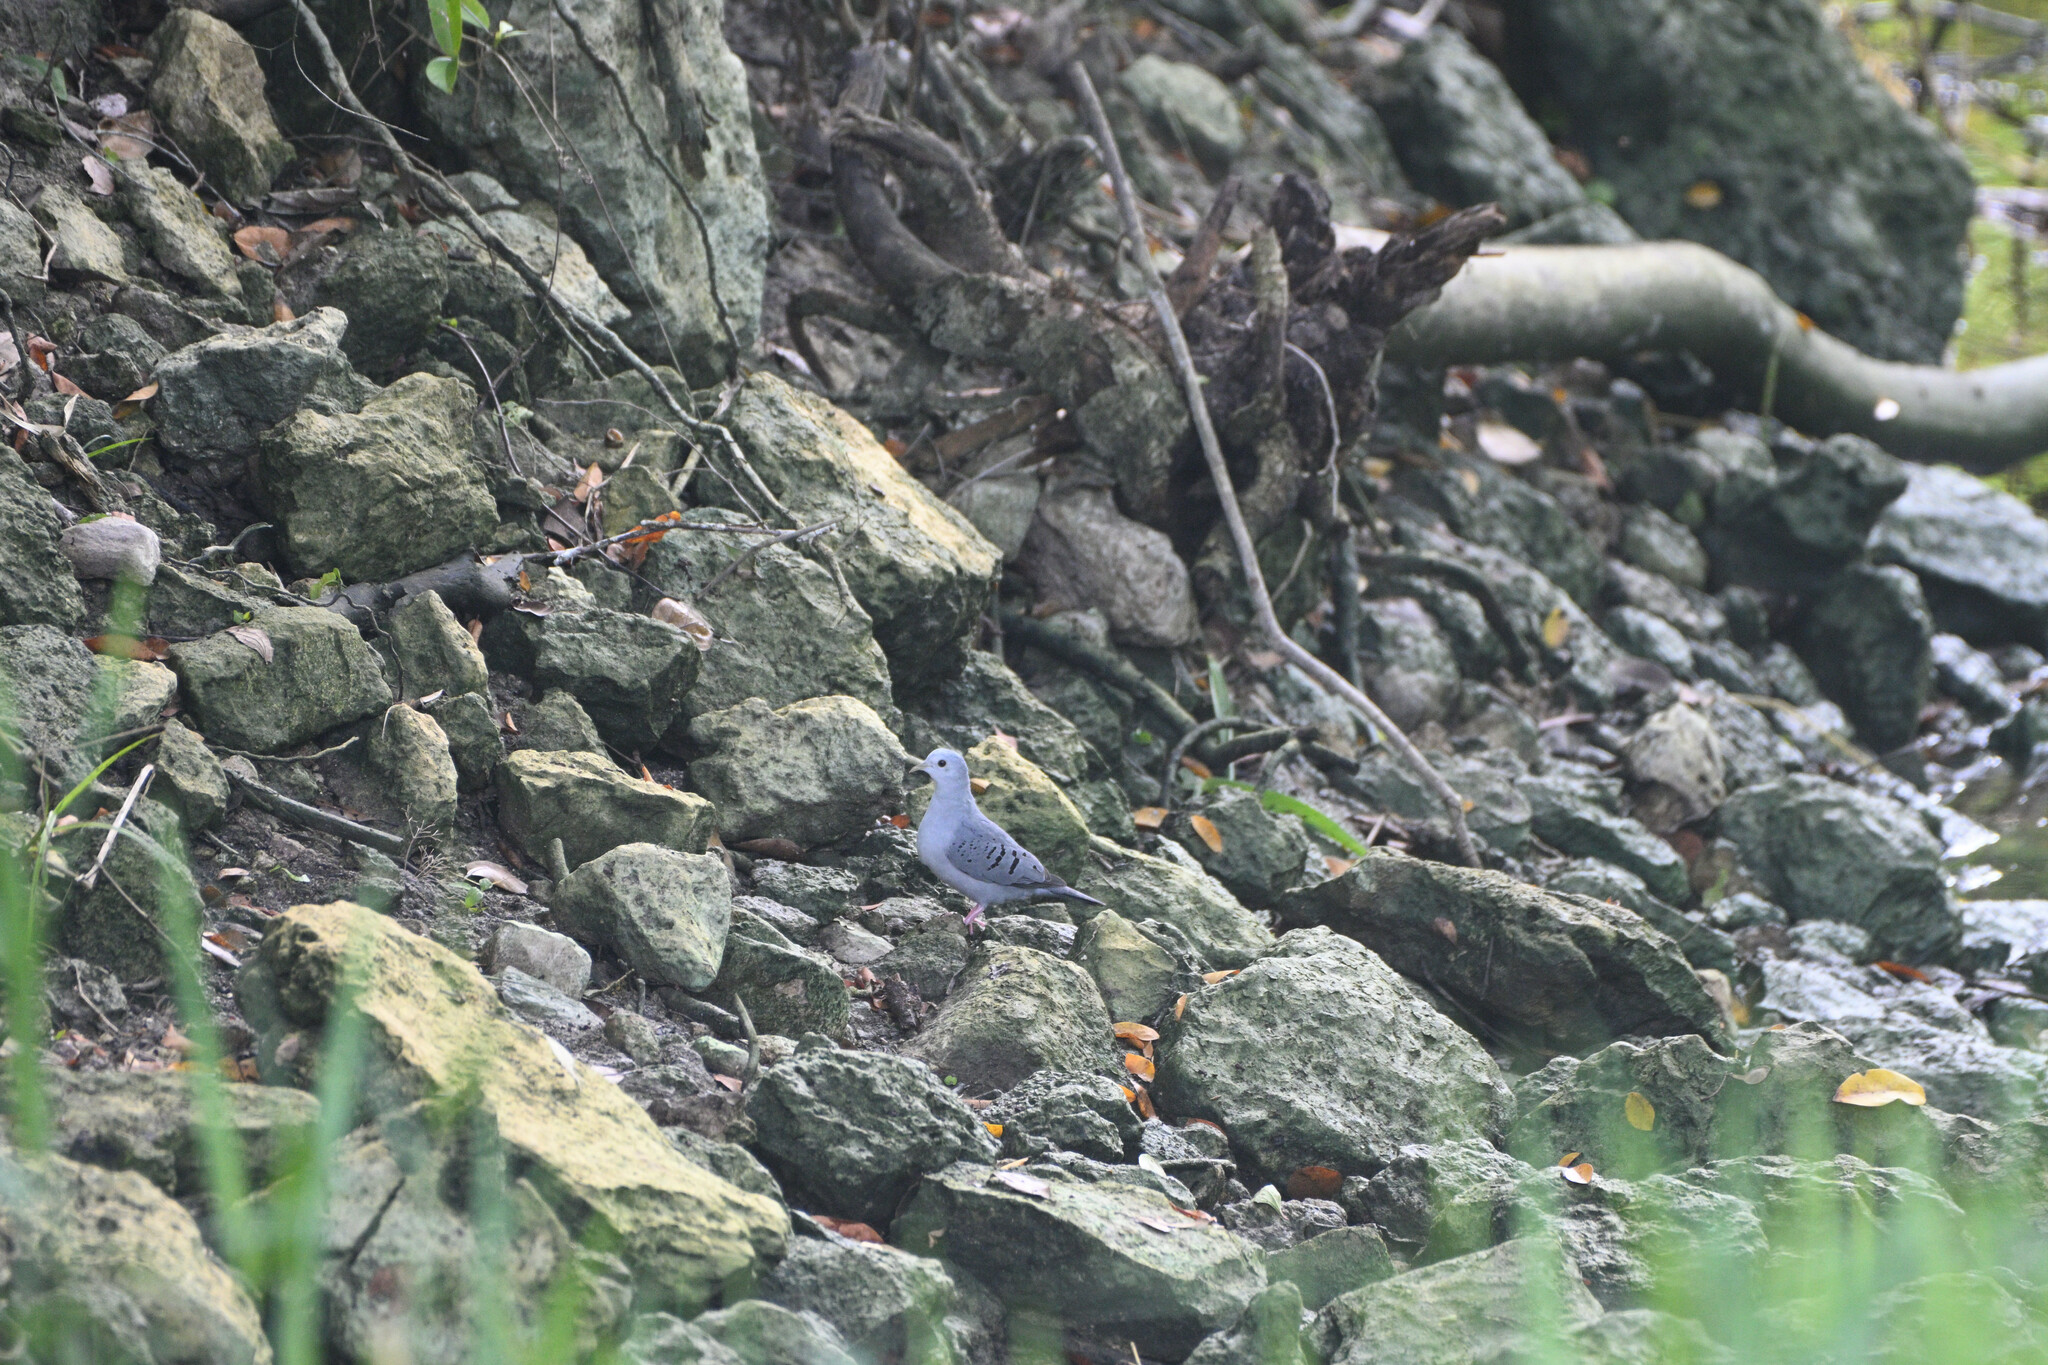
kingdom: Animalia
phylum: Chordata
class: Aves
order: Columbiformes
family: Columbidae
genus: Claravis
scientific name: Claravis pretiosa
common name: Blue ground-dove
